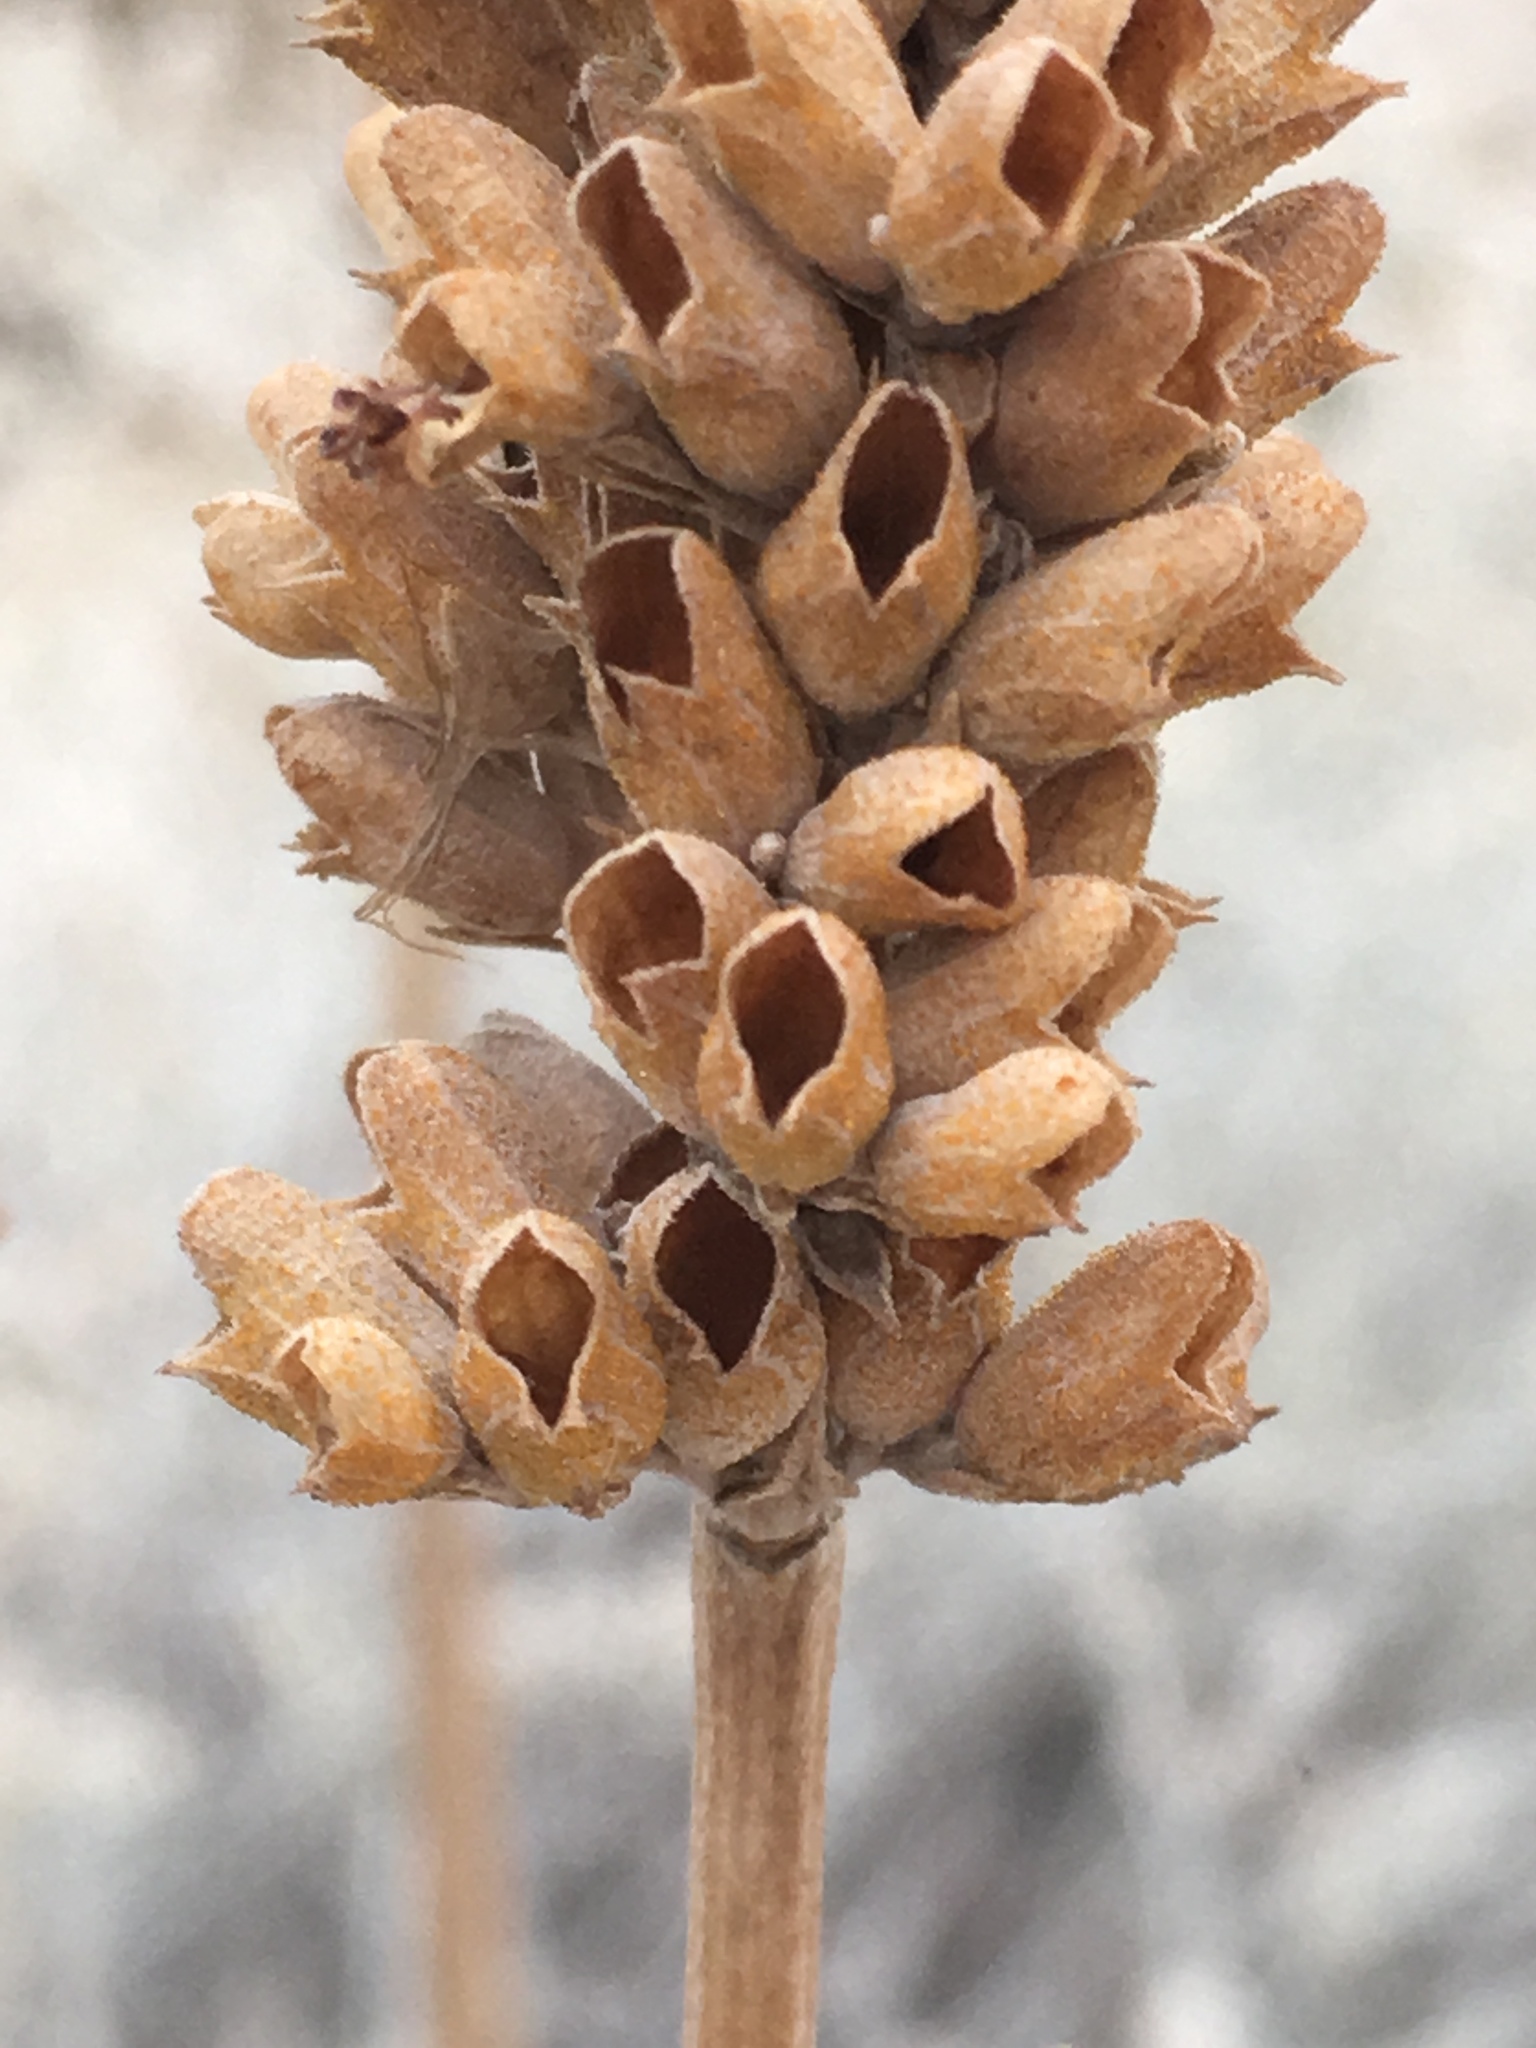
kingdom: Plantae
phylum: Tracheophyta
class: Magnoliopsida
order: Lamiales
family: Lamiaceae
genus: Salvia
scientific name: Salvia apiana
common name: White sage
